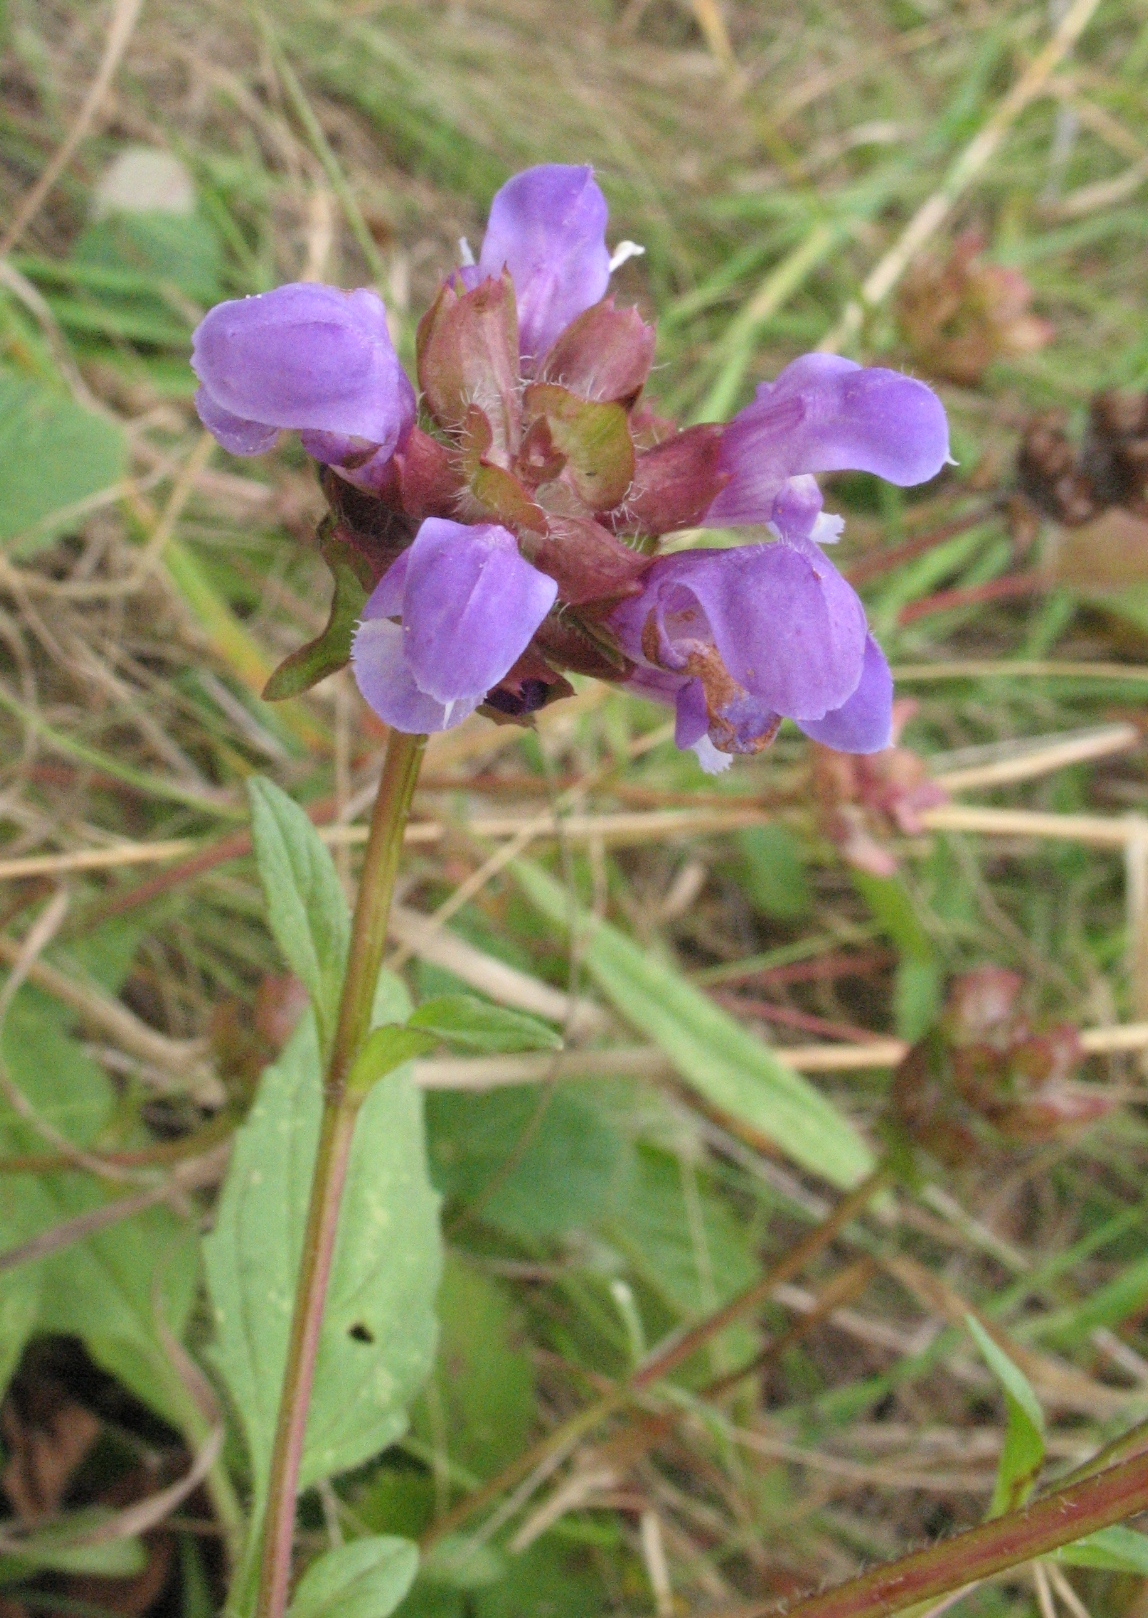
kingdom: Plantae
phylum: Tracheophyta
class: Magnoliopsida
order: Lamiales
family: Lamiaceae
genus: Prunella
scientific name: Prunella vulgaris
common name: Heal-all
